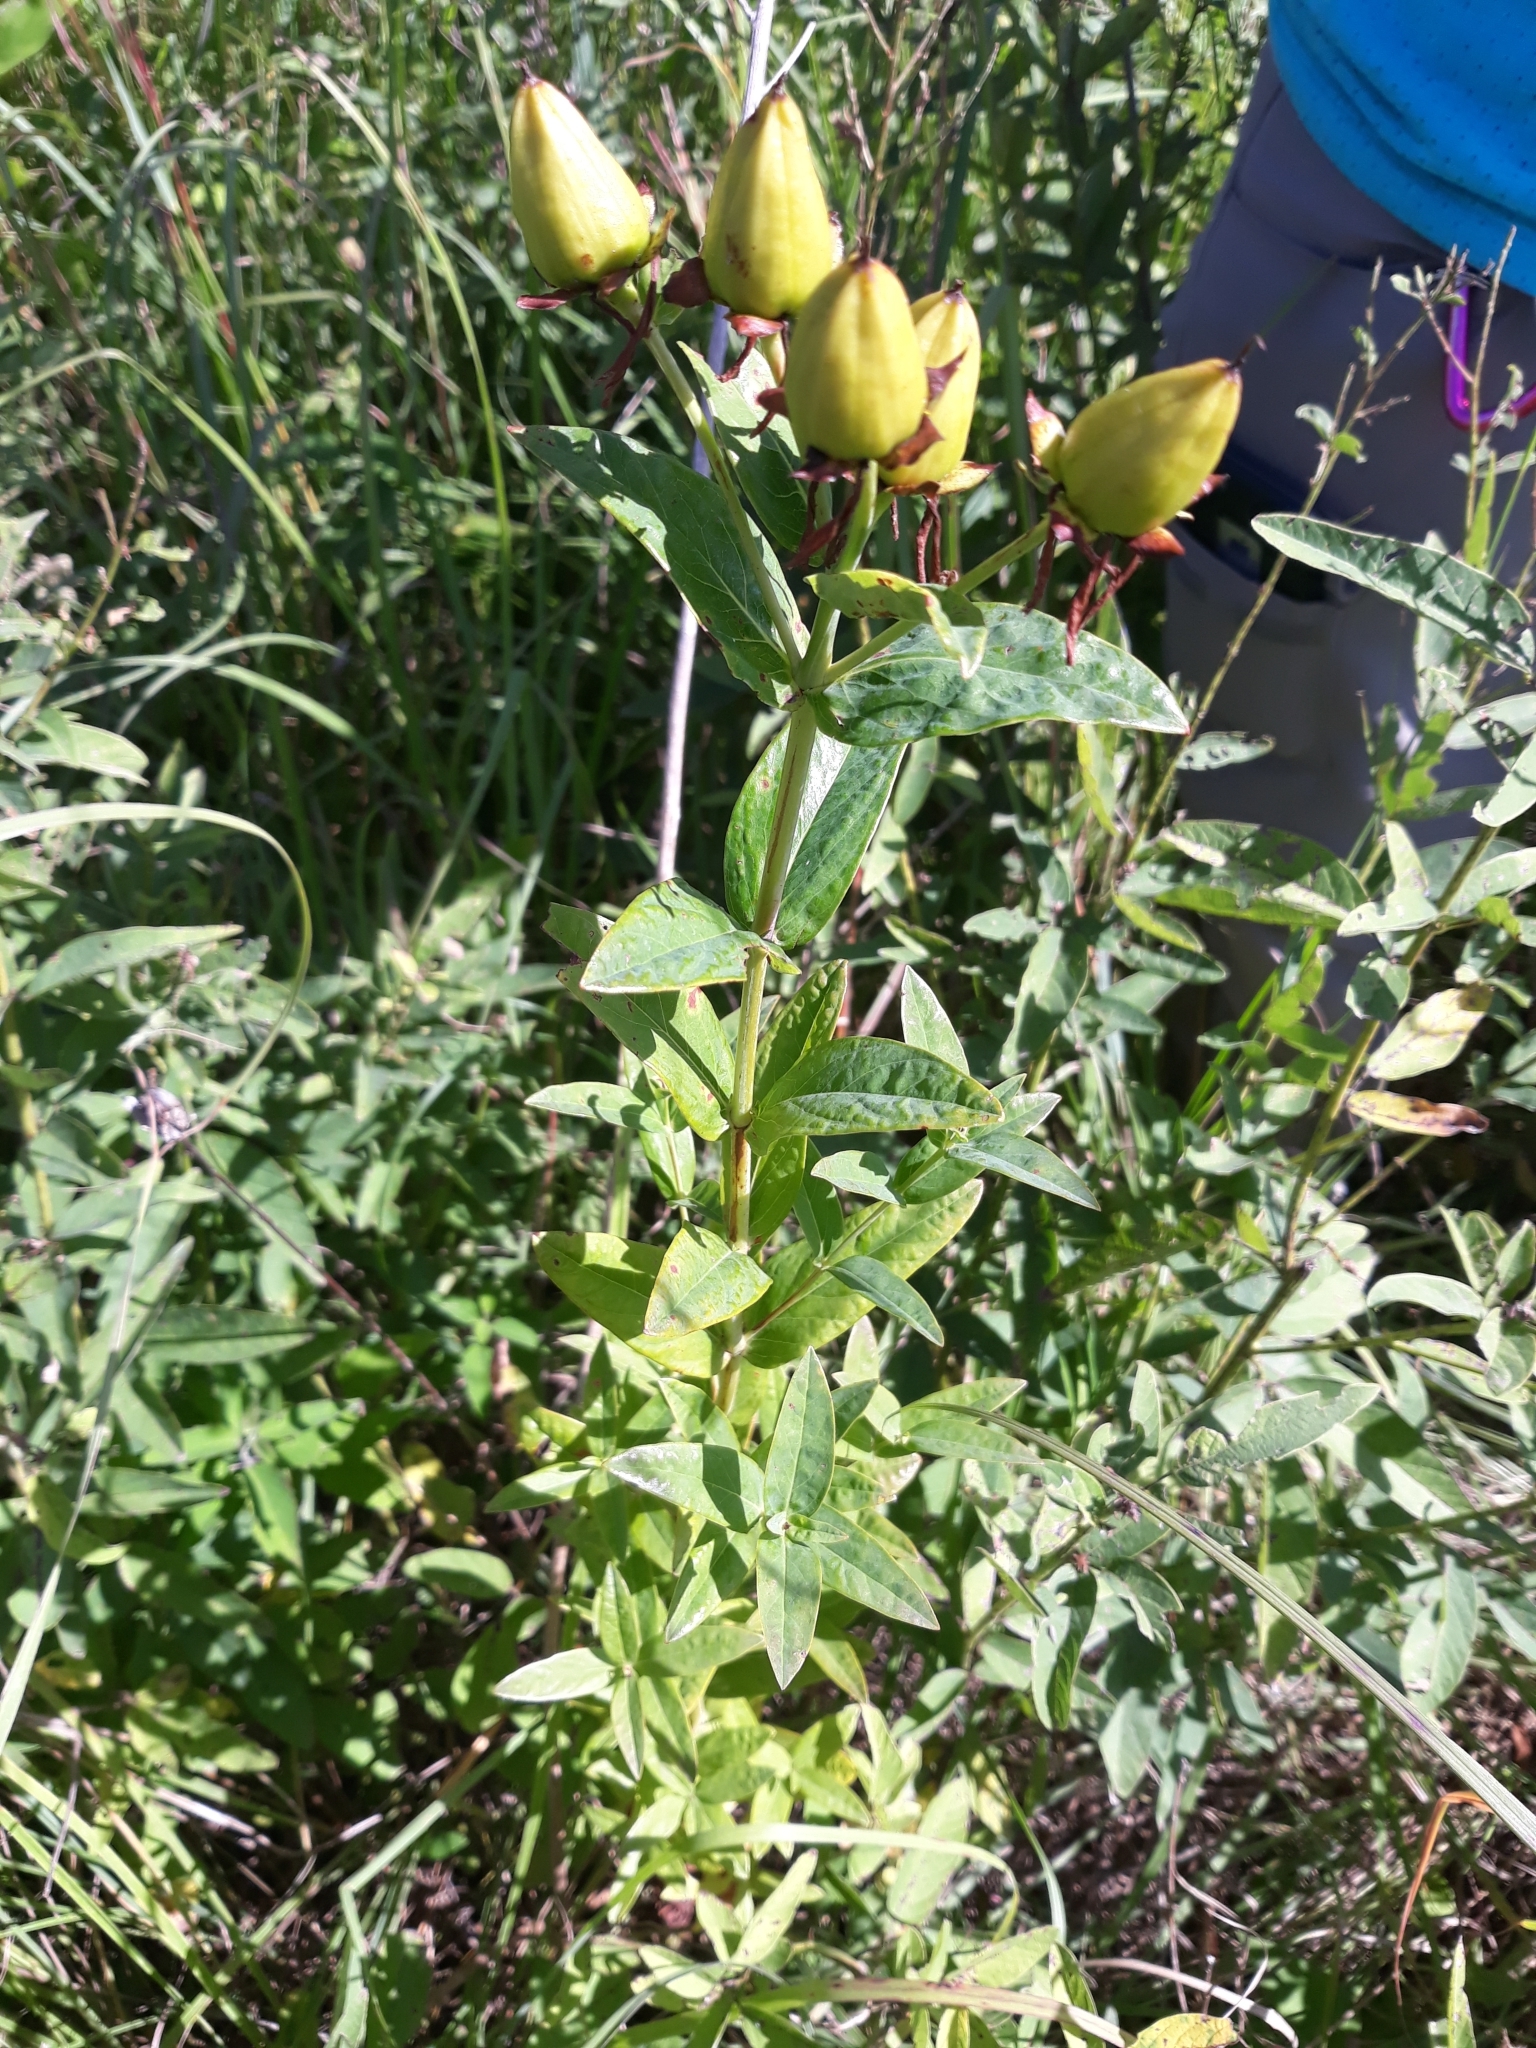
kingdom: Plantae
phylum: Tracheophyta
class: Magnoliopsida
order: Malpighiales
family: Hypericaceae
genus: Hypericum
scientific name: Hypericum ascyron
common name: Giant st. john's-wort
